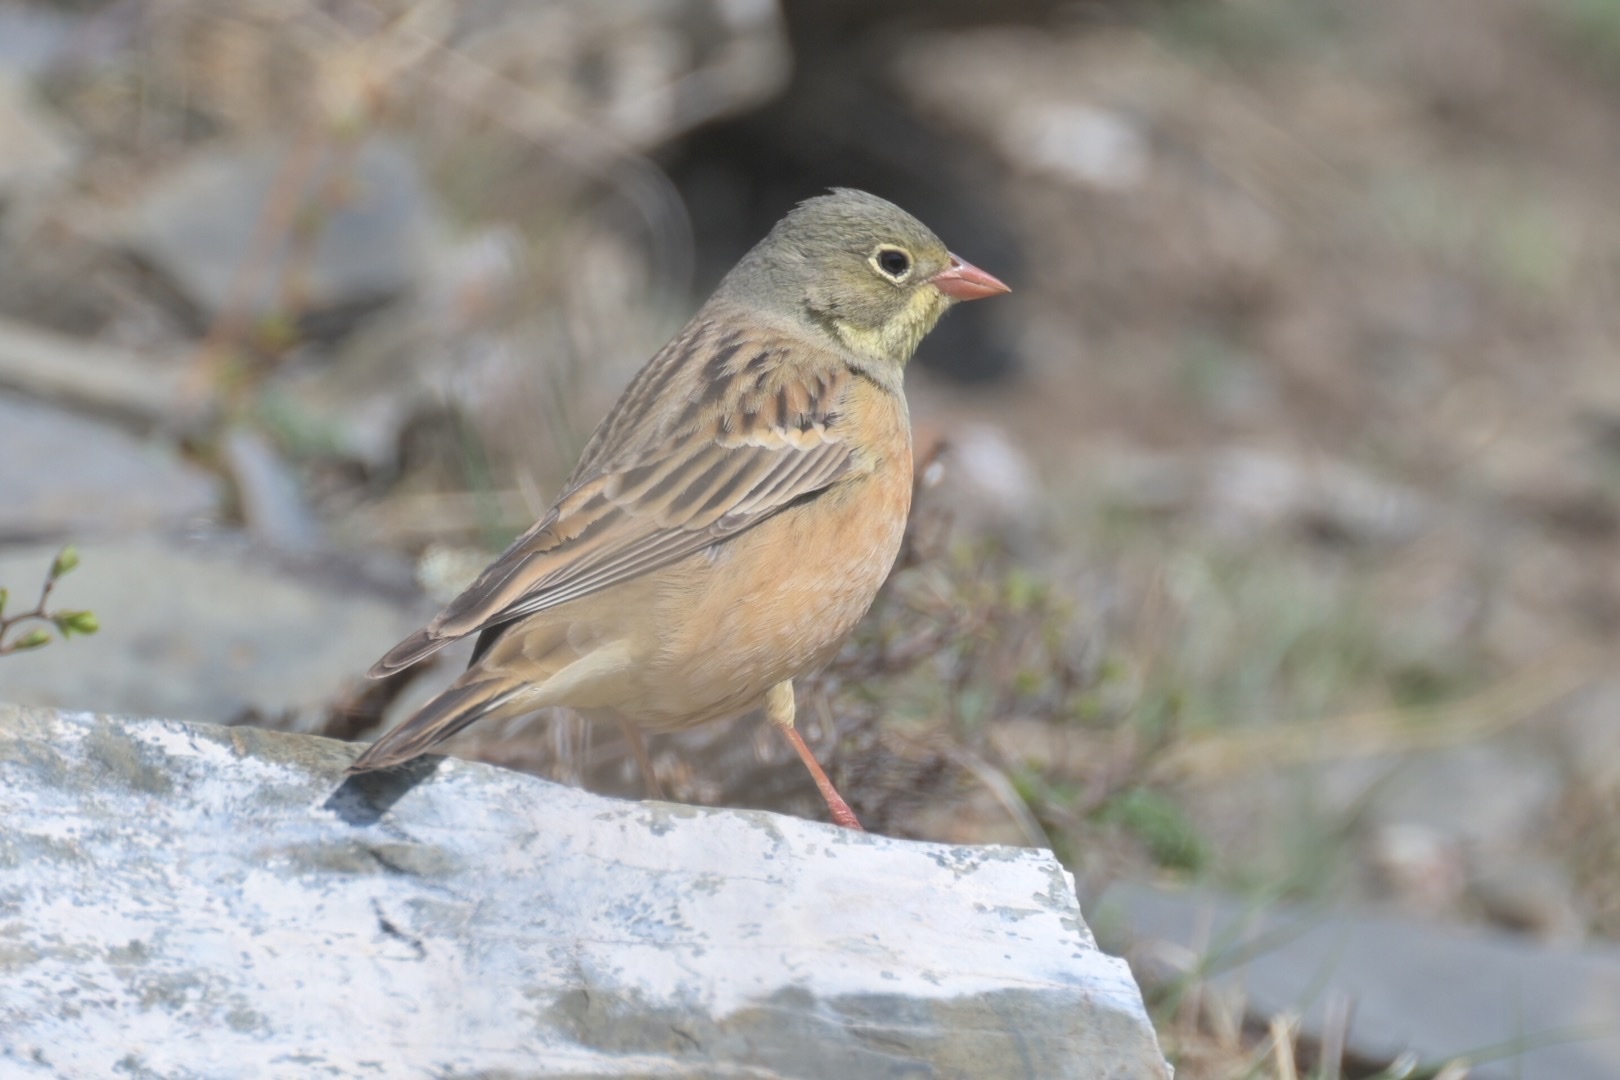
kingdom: Animalia
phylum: Chordata
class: Aves
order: Passeriformes
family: Emberizidae
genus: Emberiza
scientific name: Emberiza hortulana
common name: Ortolan bunting
